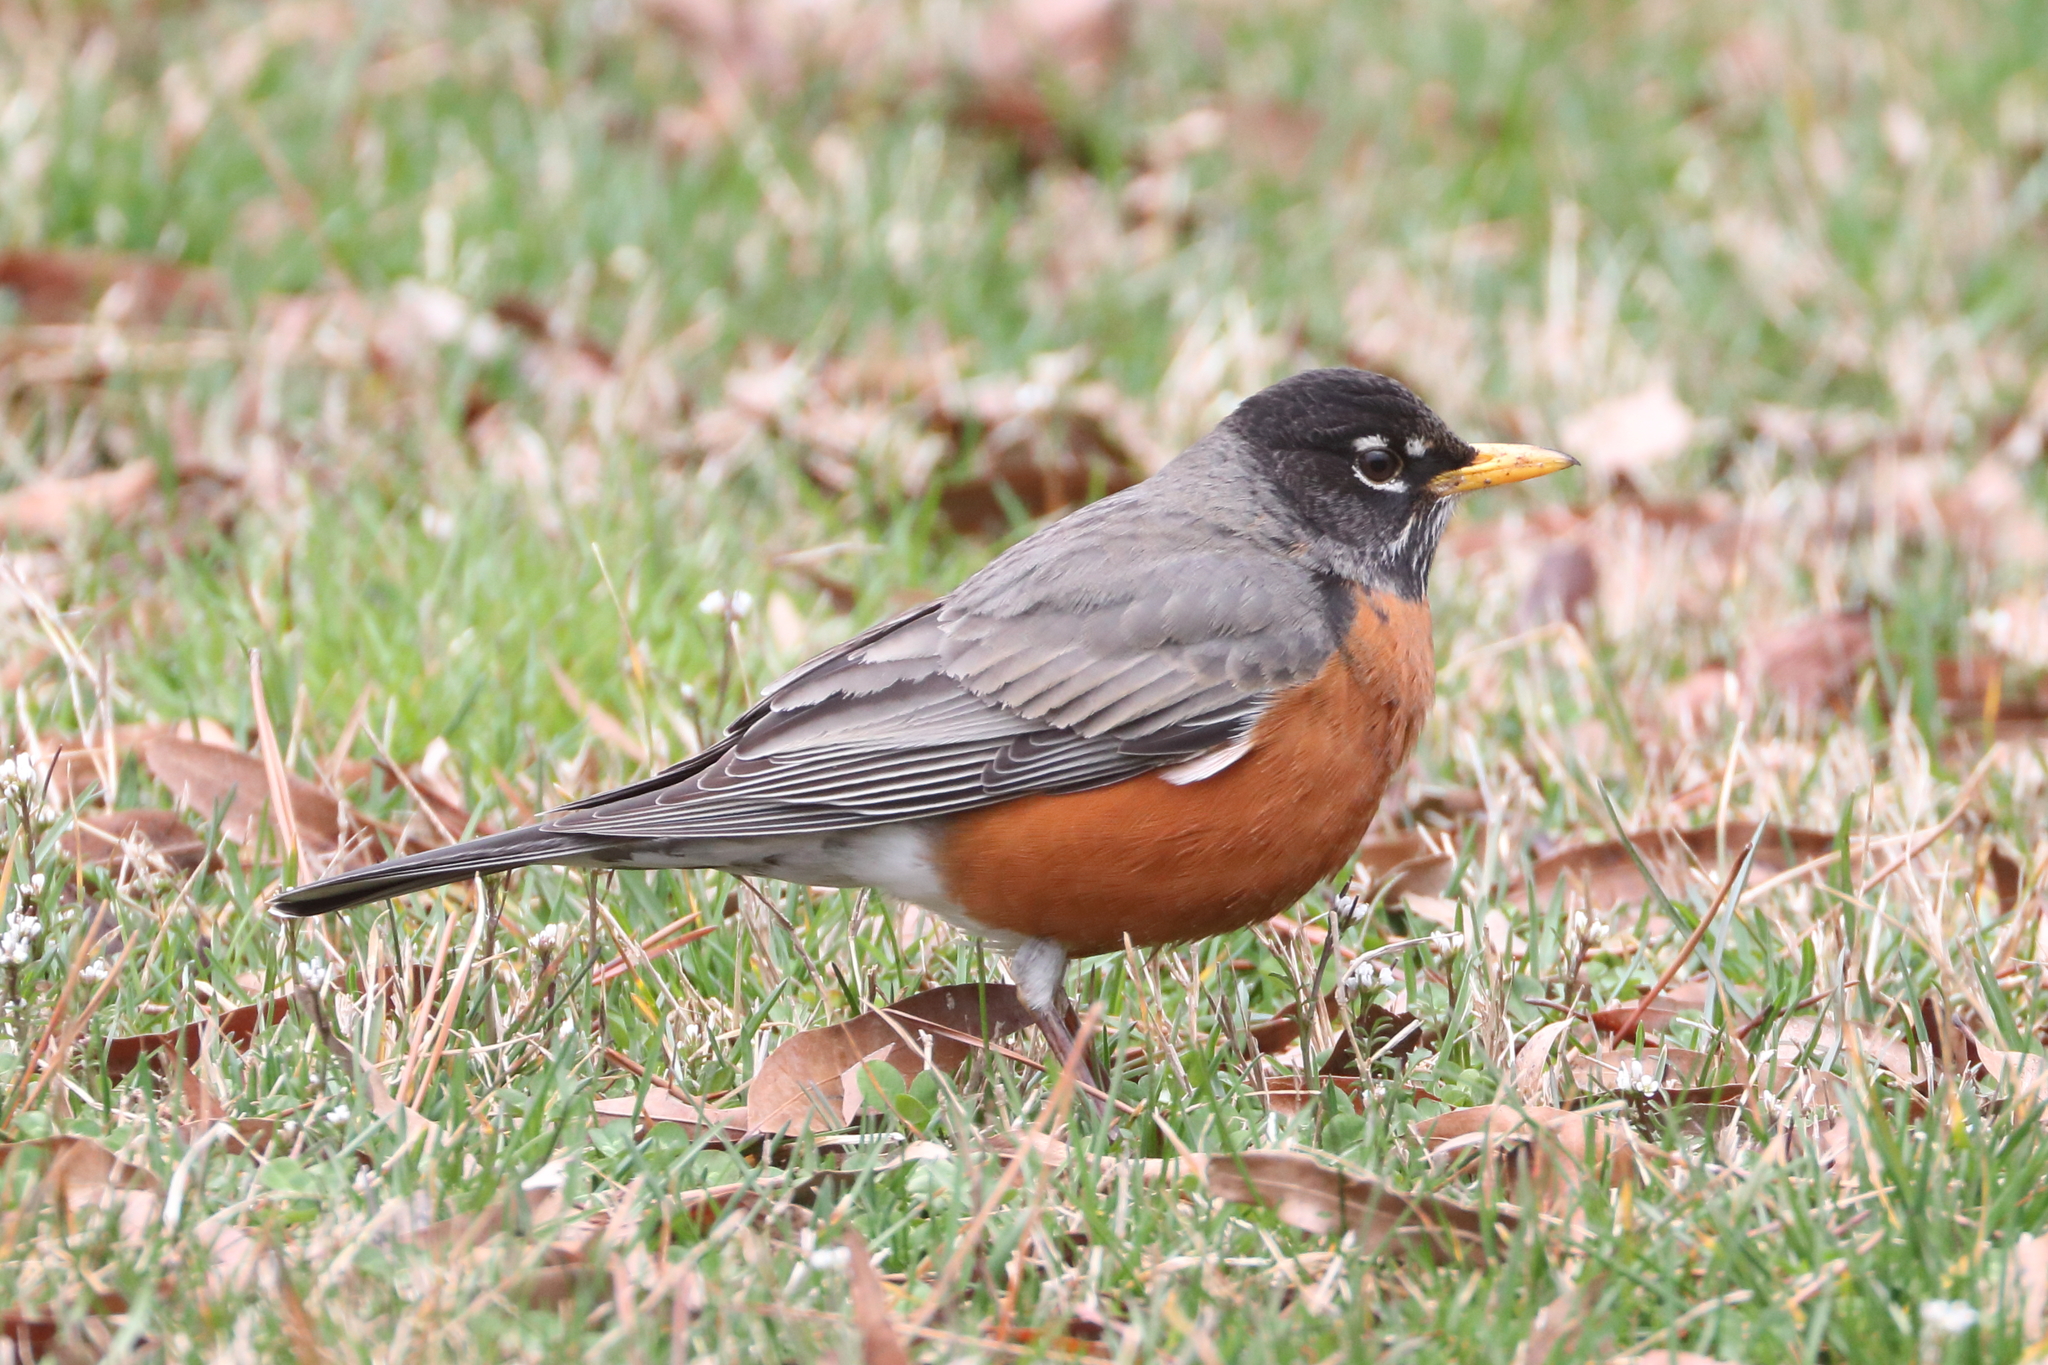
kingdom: Animalia
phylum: Chordata
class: Aves
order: Passeriformes
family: Turdidae
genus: Turdus
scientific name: Turdus migratorius
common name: American robin
